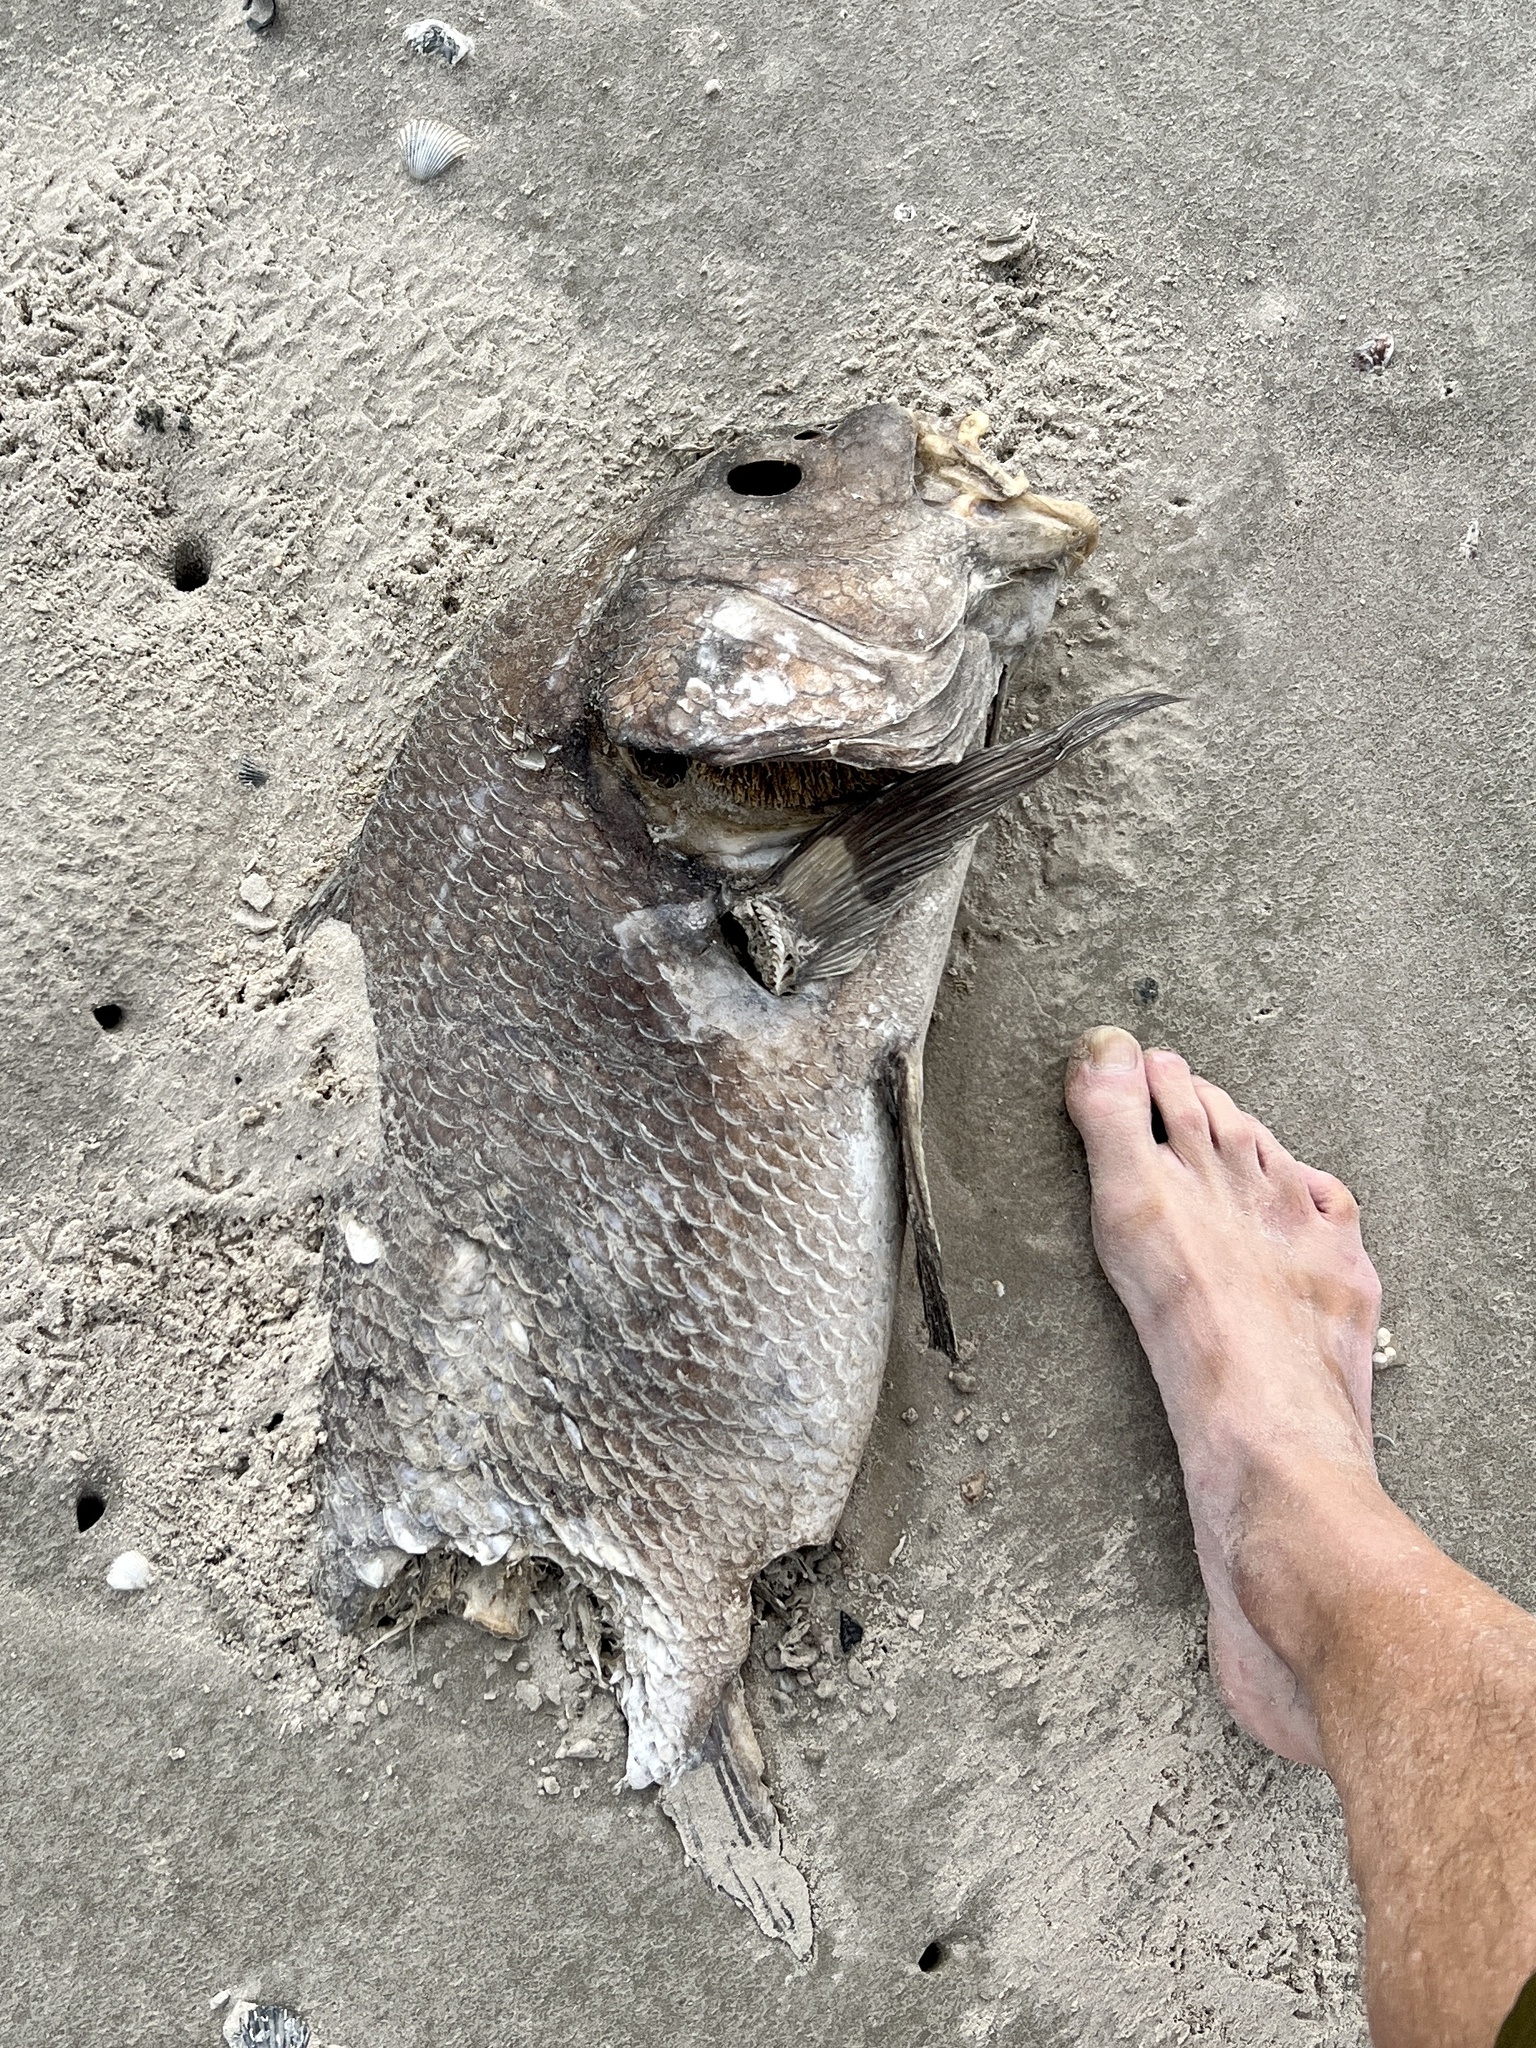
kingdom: Animalia
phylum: Chordata
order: Perciformes
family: Sciaenidae
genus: Pogonias
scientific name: Pogonias cromis
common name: Black drum
